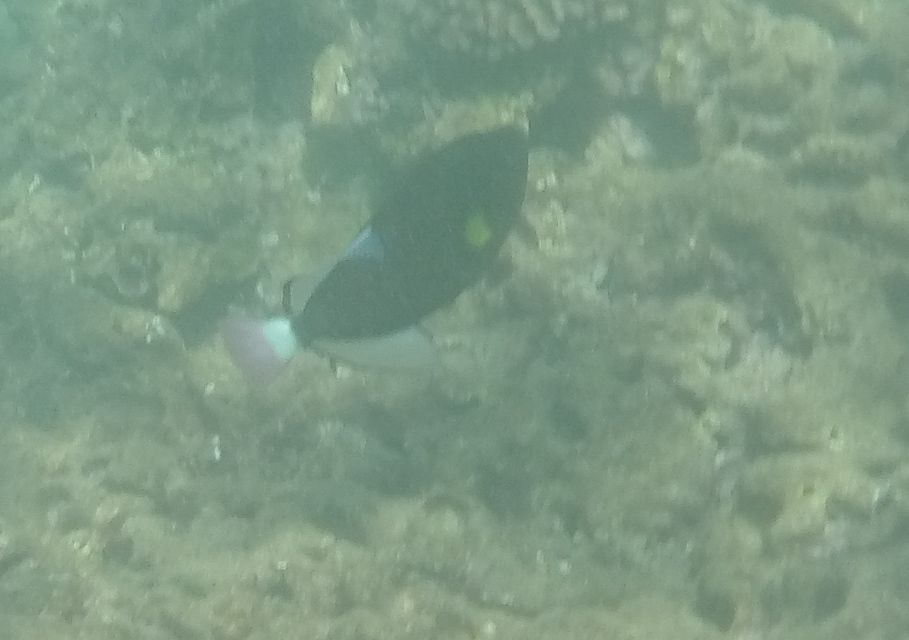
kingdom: Animalia
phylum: Chordata
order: Tetraodontiformes
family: Balistidae
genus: Melichthys
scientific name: Melichthys vidua
